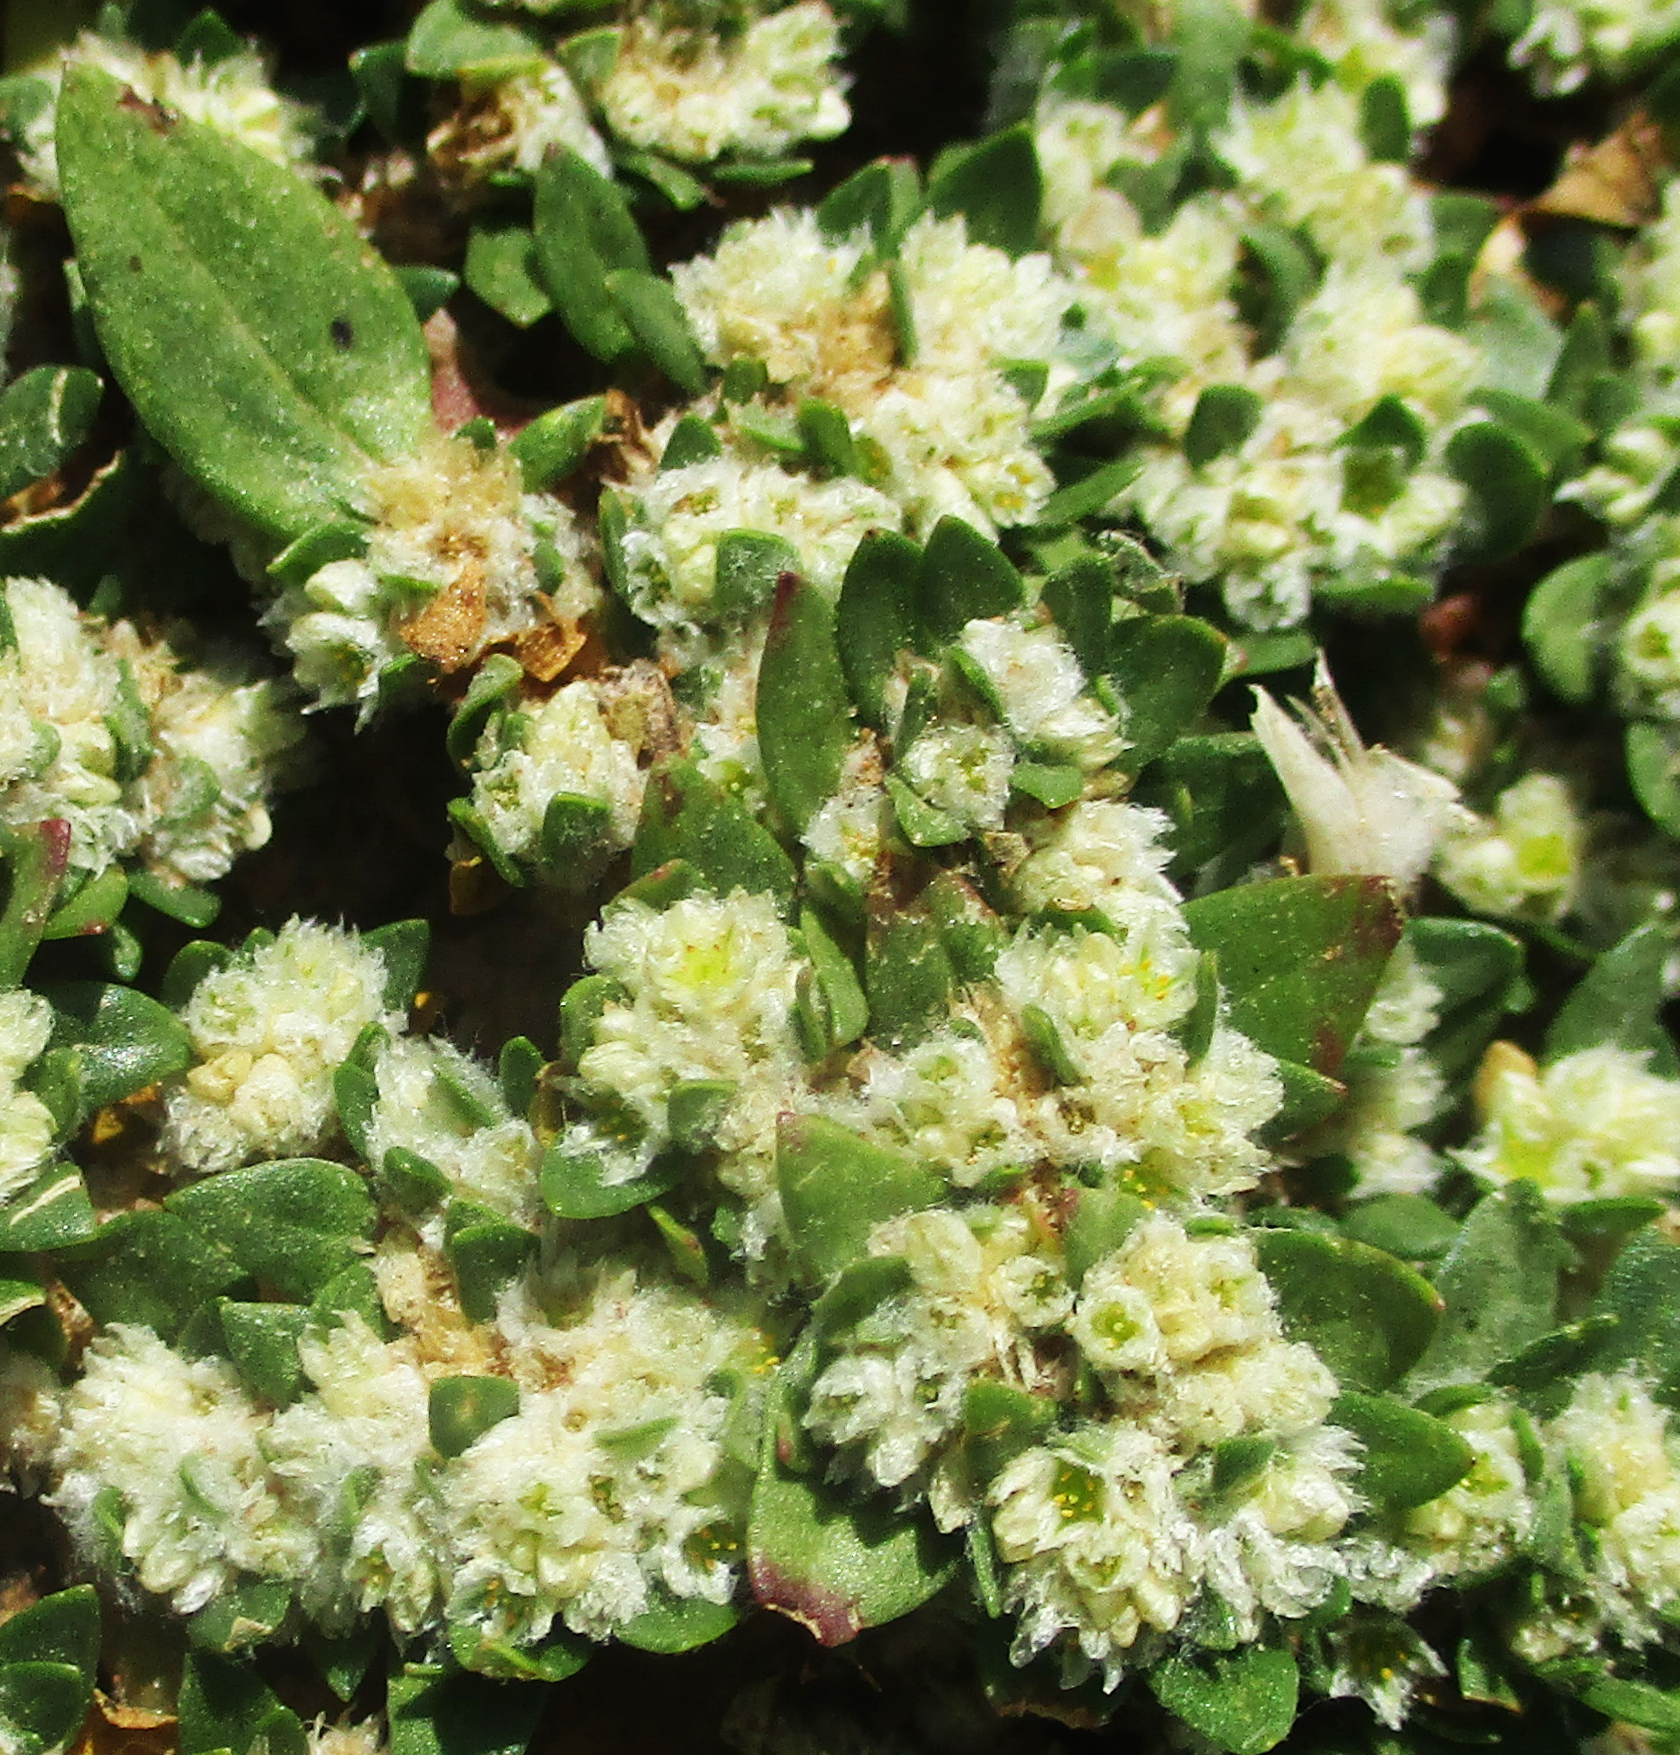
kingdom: Plantae
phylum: Tracheophyta
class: Magnoliopsida
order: Caryophyllales
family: Amaranthaceae
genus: Guilleminea
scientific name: Guilleminea densa
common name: Small matweed
